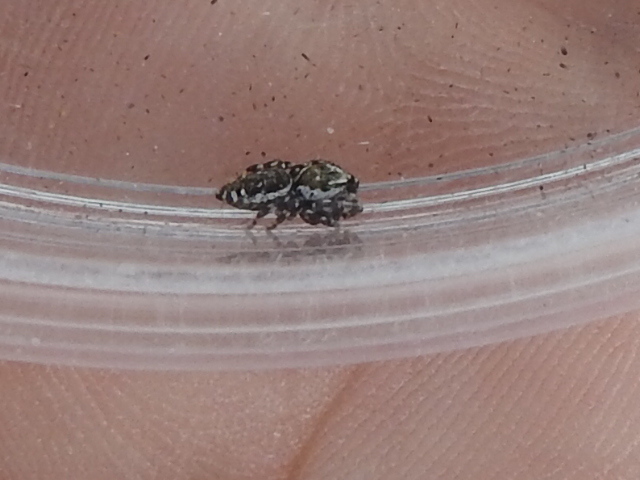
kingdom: Animalia
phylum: Arthropoda
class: Arachnida
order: Araneae
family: Salticidae
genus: Pelegrina
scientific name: Pelegrina galathea
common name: Jumping spiders
